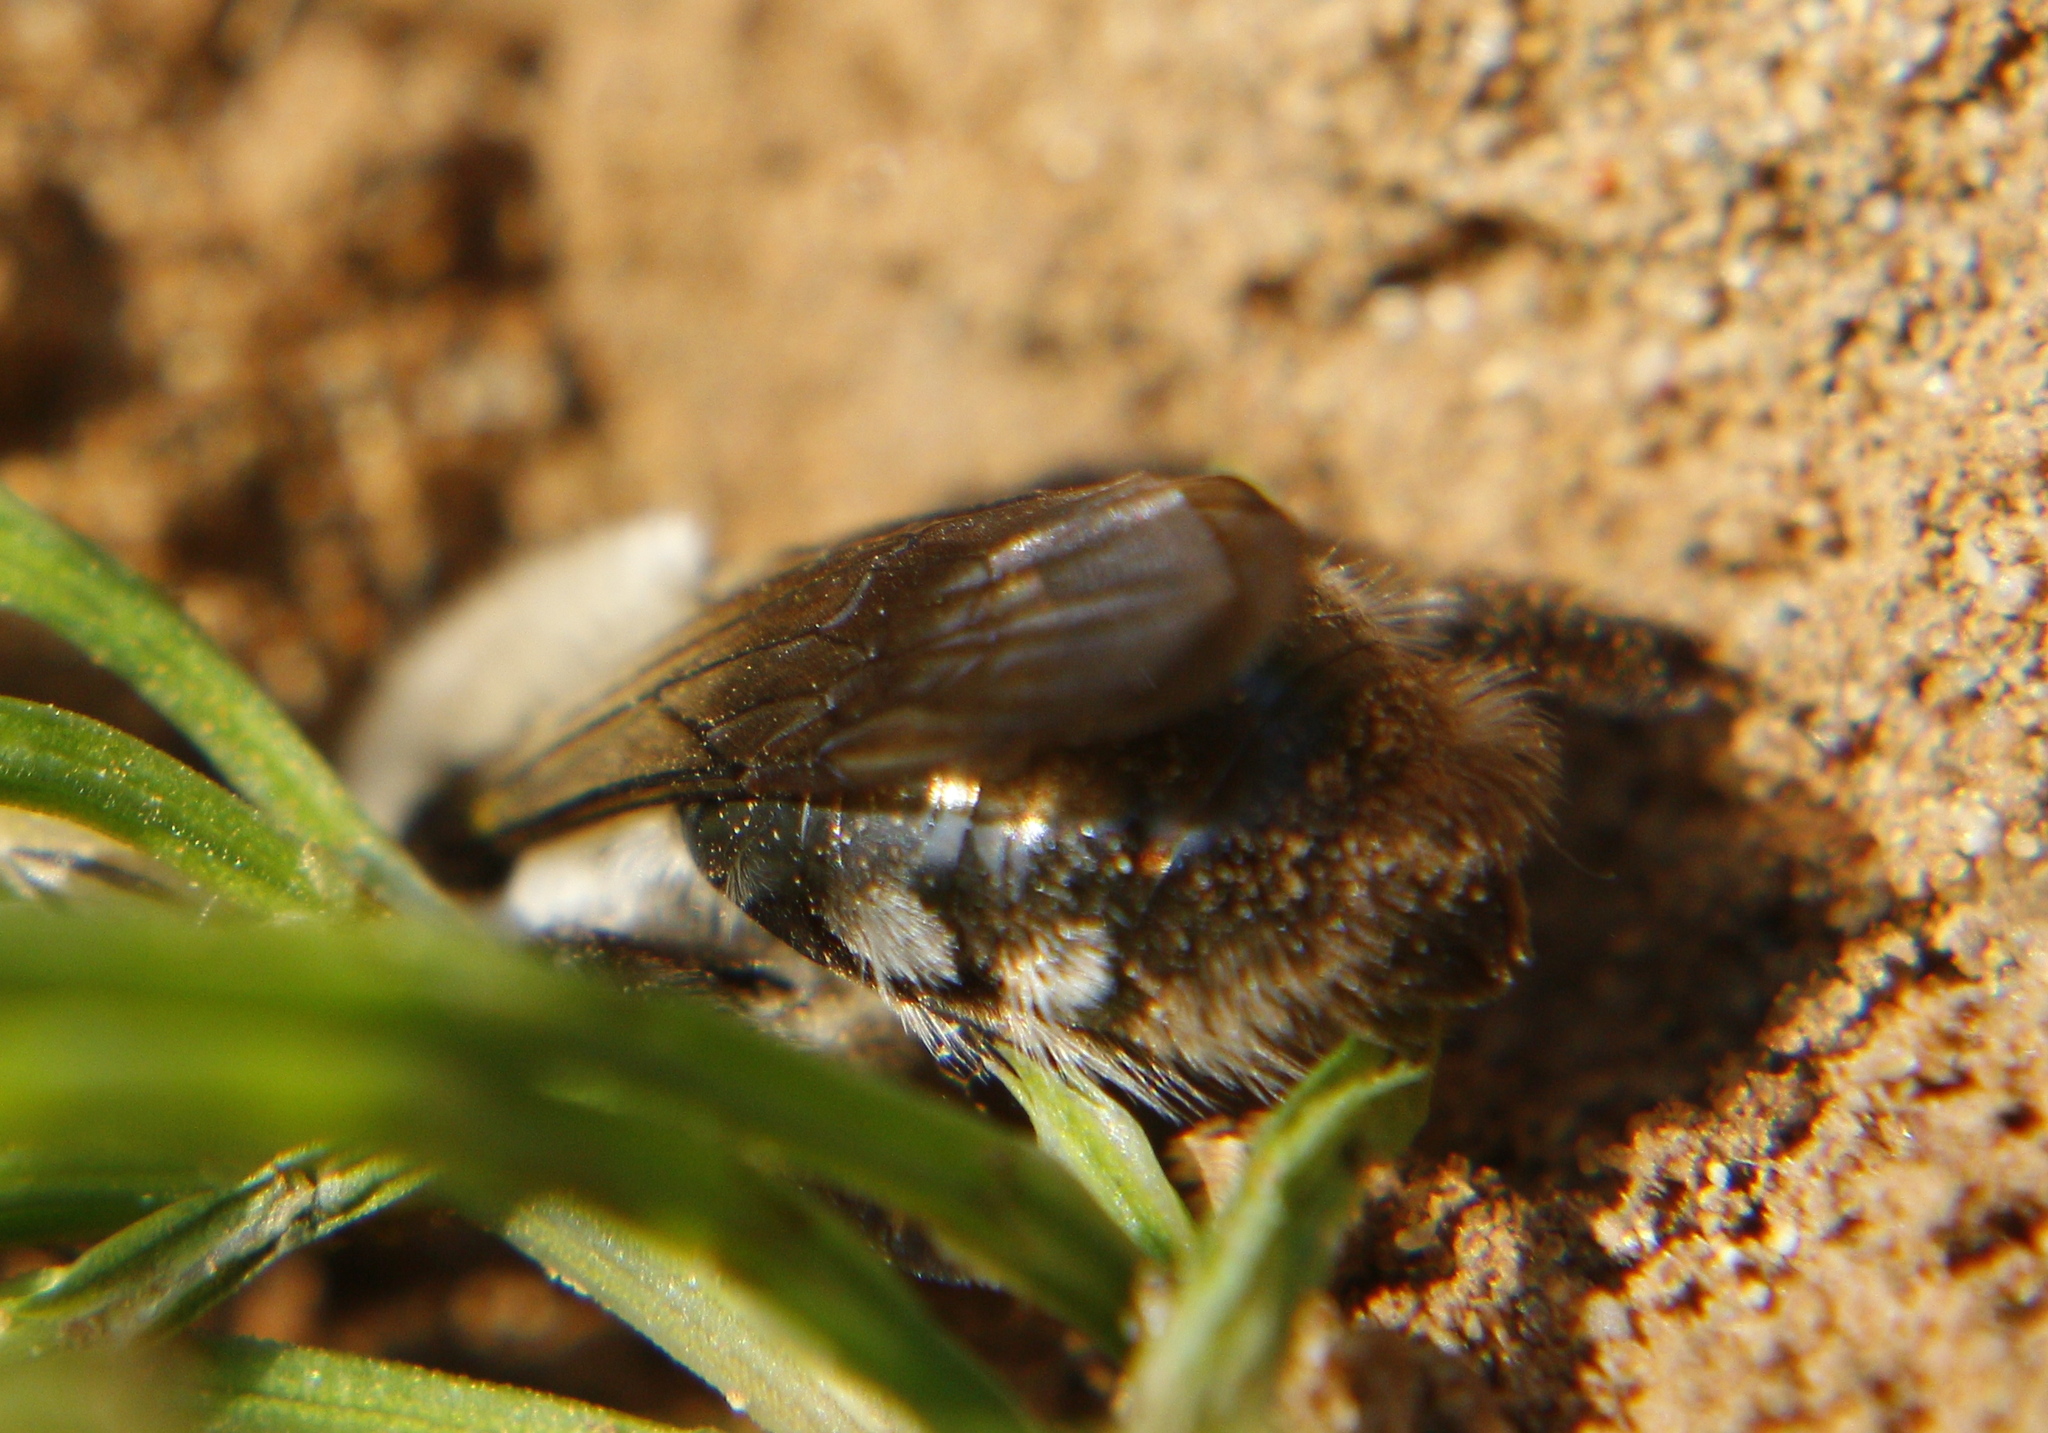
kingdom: Animalia
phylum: Arthropoda
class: Insecta
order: Hymenoptera
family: Andrenidae
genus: Andrena
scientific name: Andrena vaga
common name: Grey-backed mining bee
